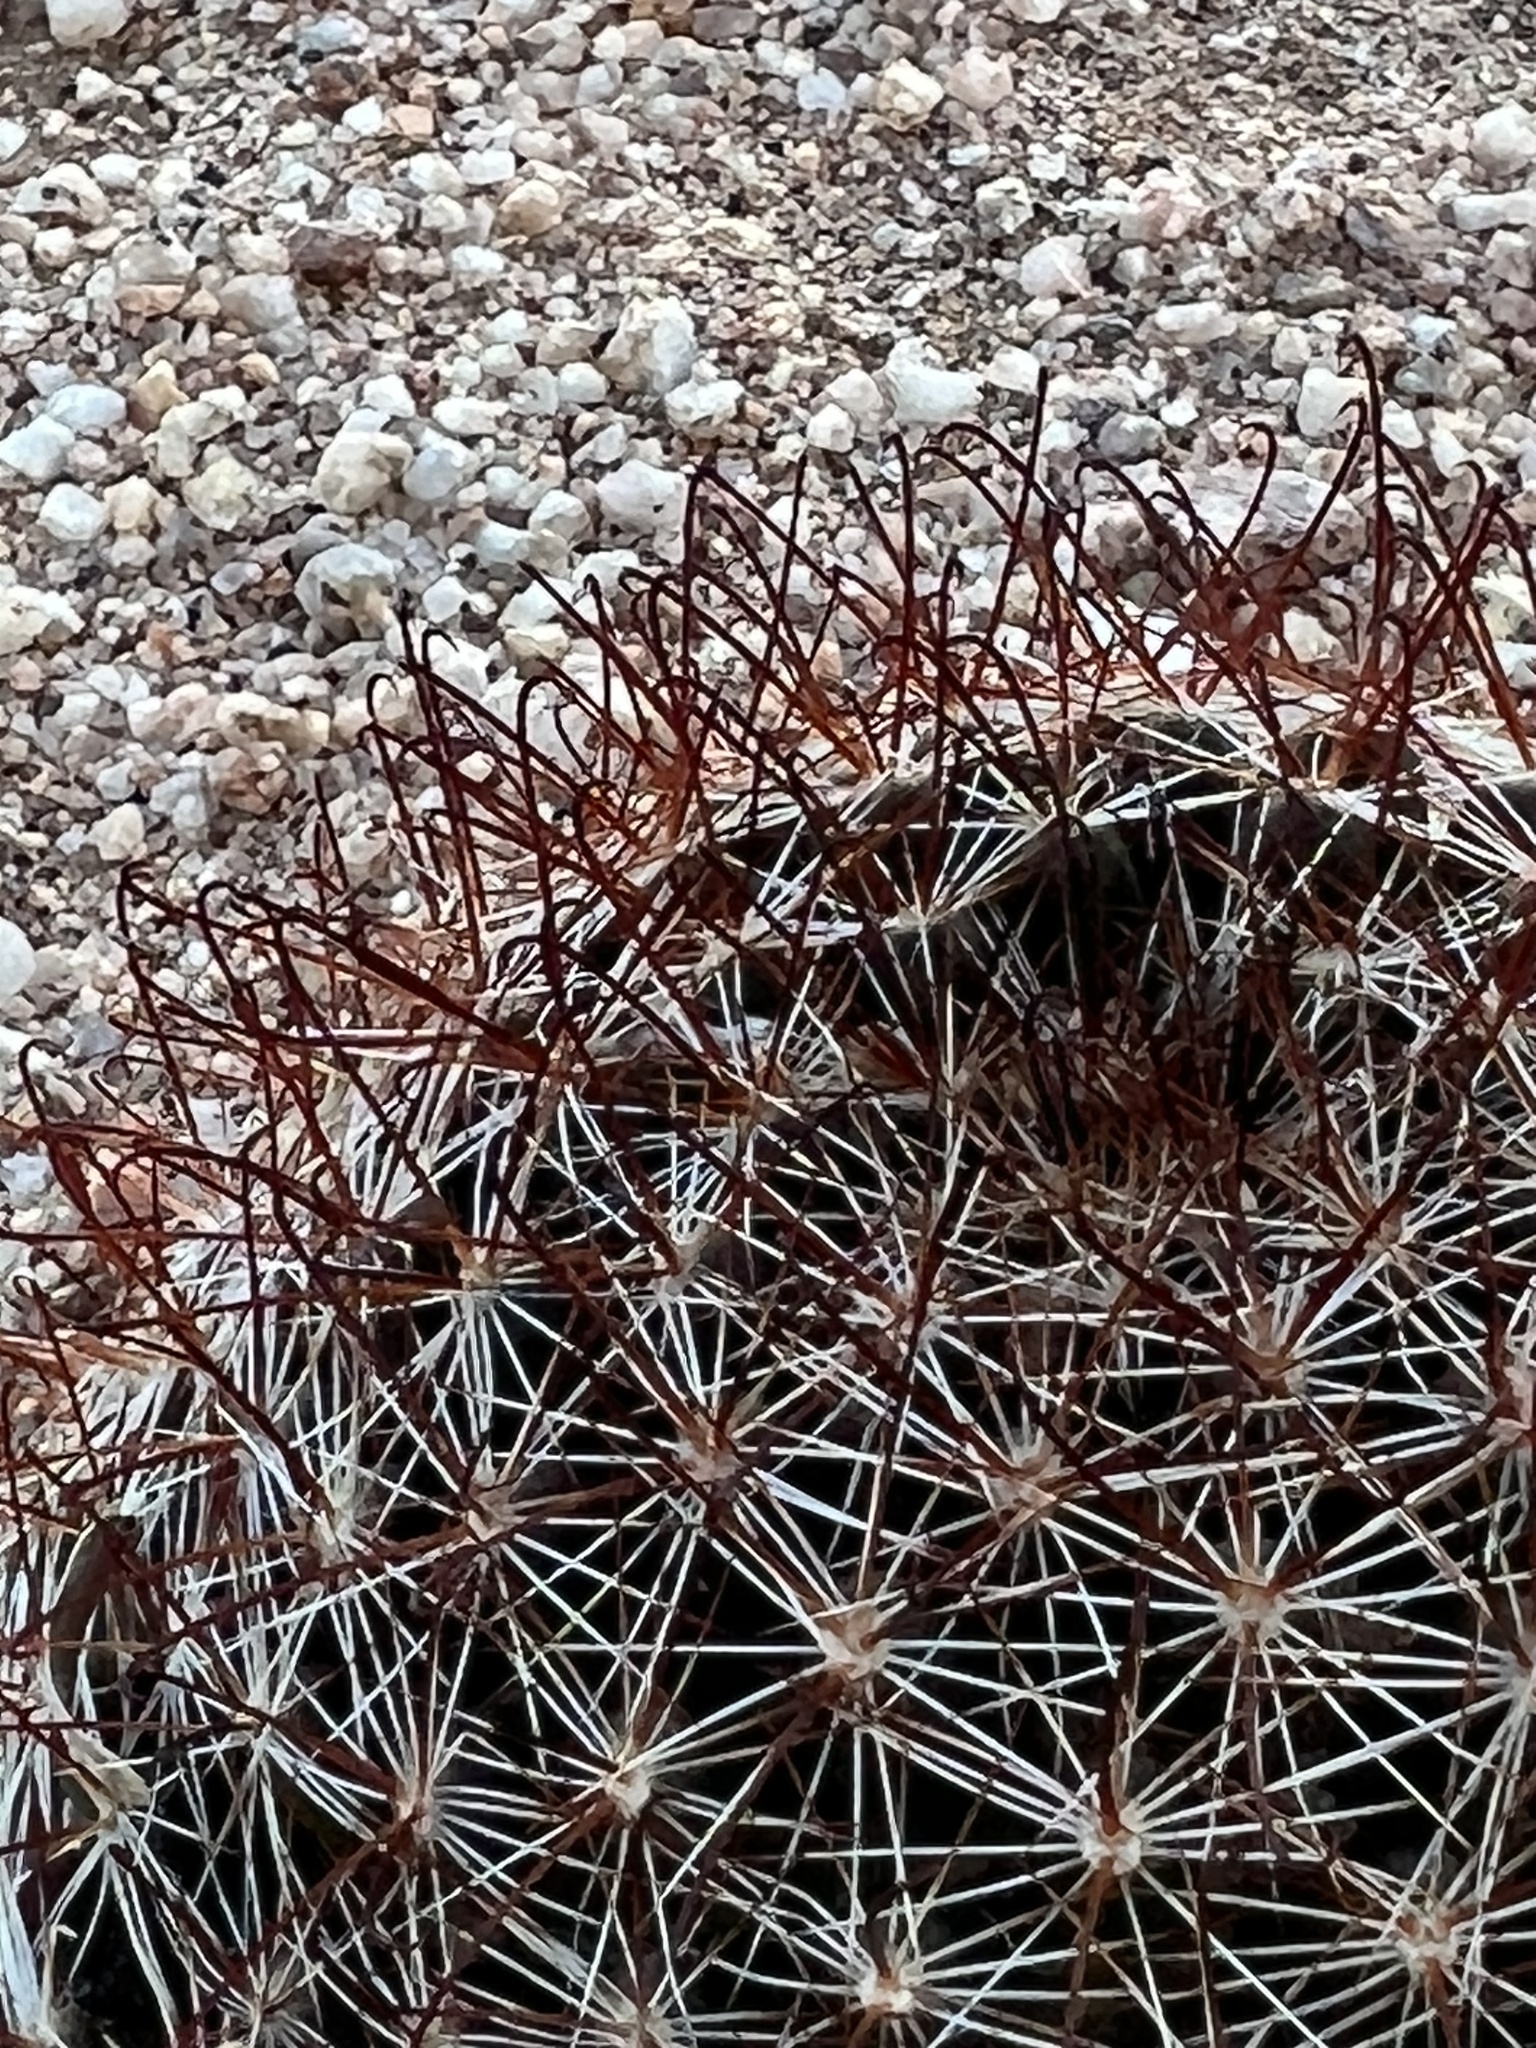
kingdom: Plantae
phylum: Tracheophyta
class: Magnoliopsida
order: Caryophyllales
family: Cactaceae
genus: Cochemiea
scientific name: Cochemiea wrightii
